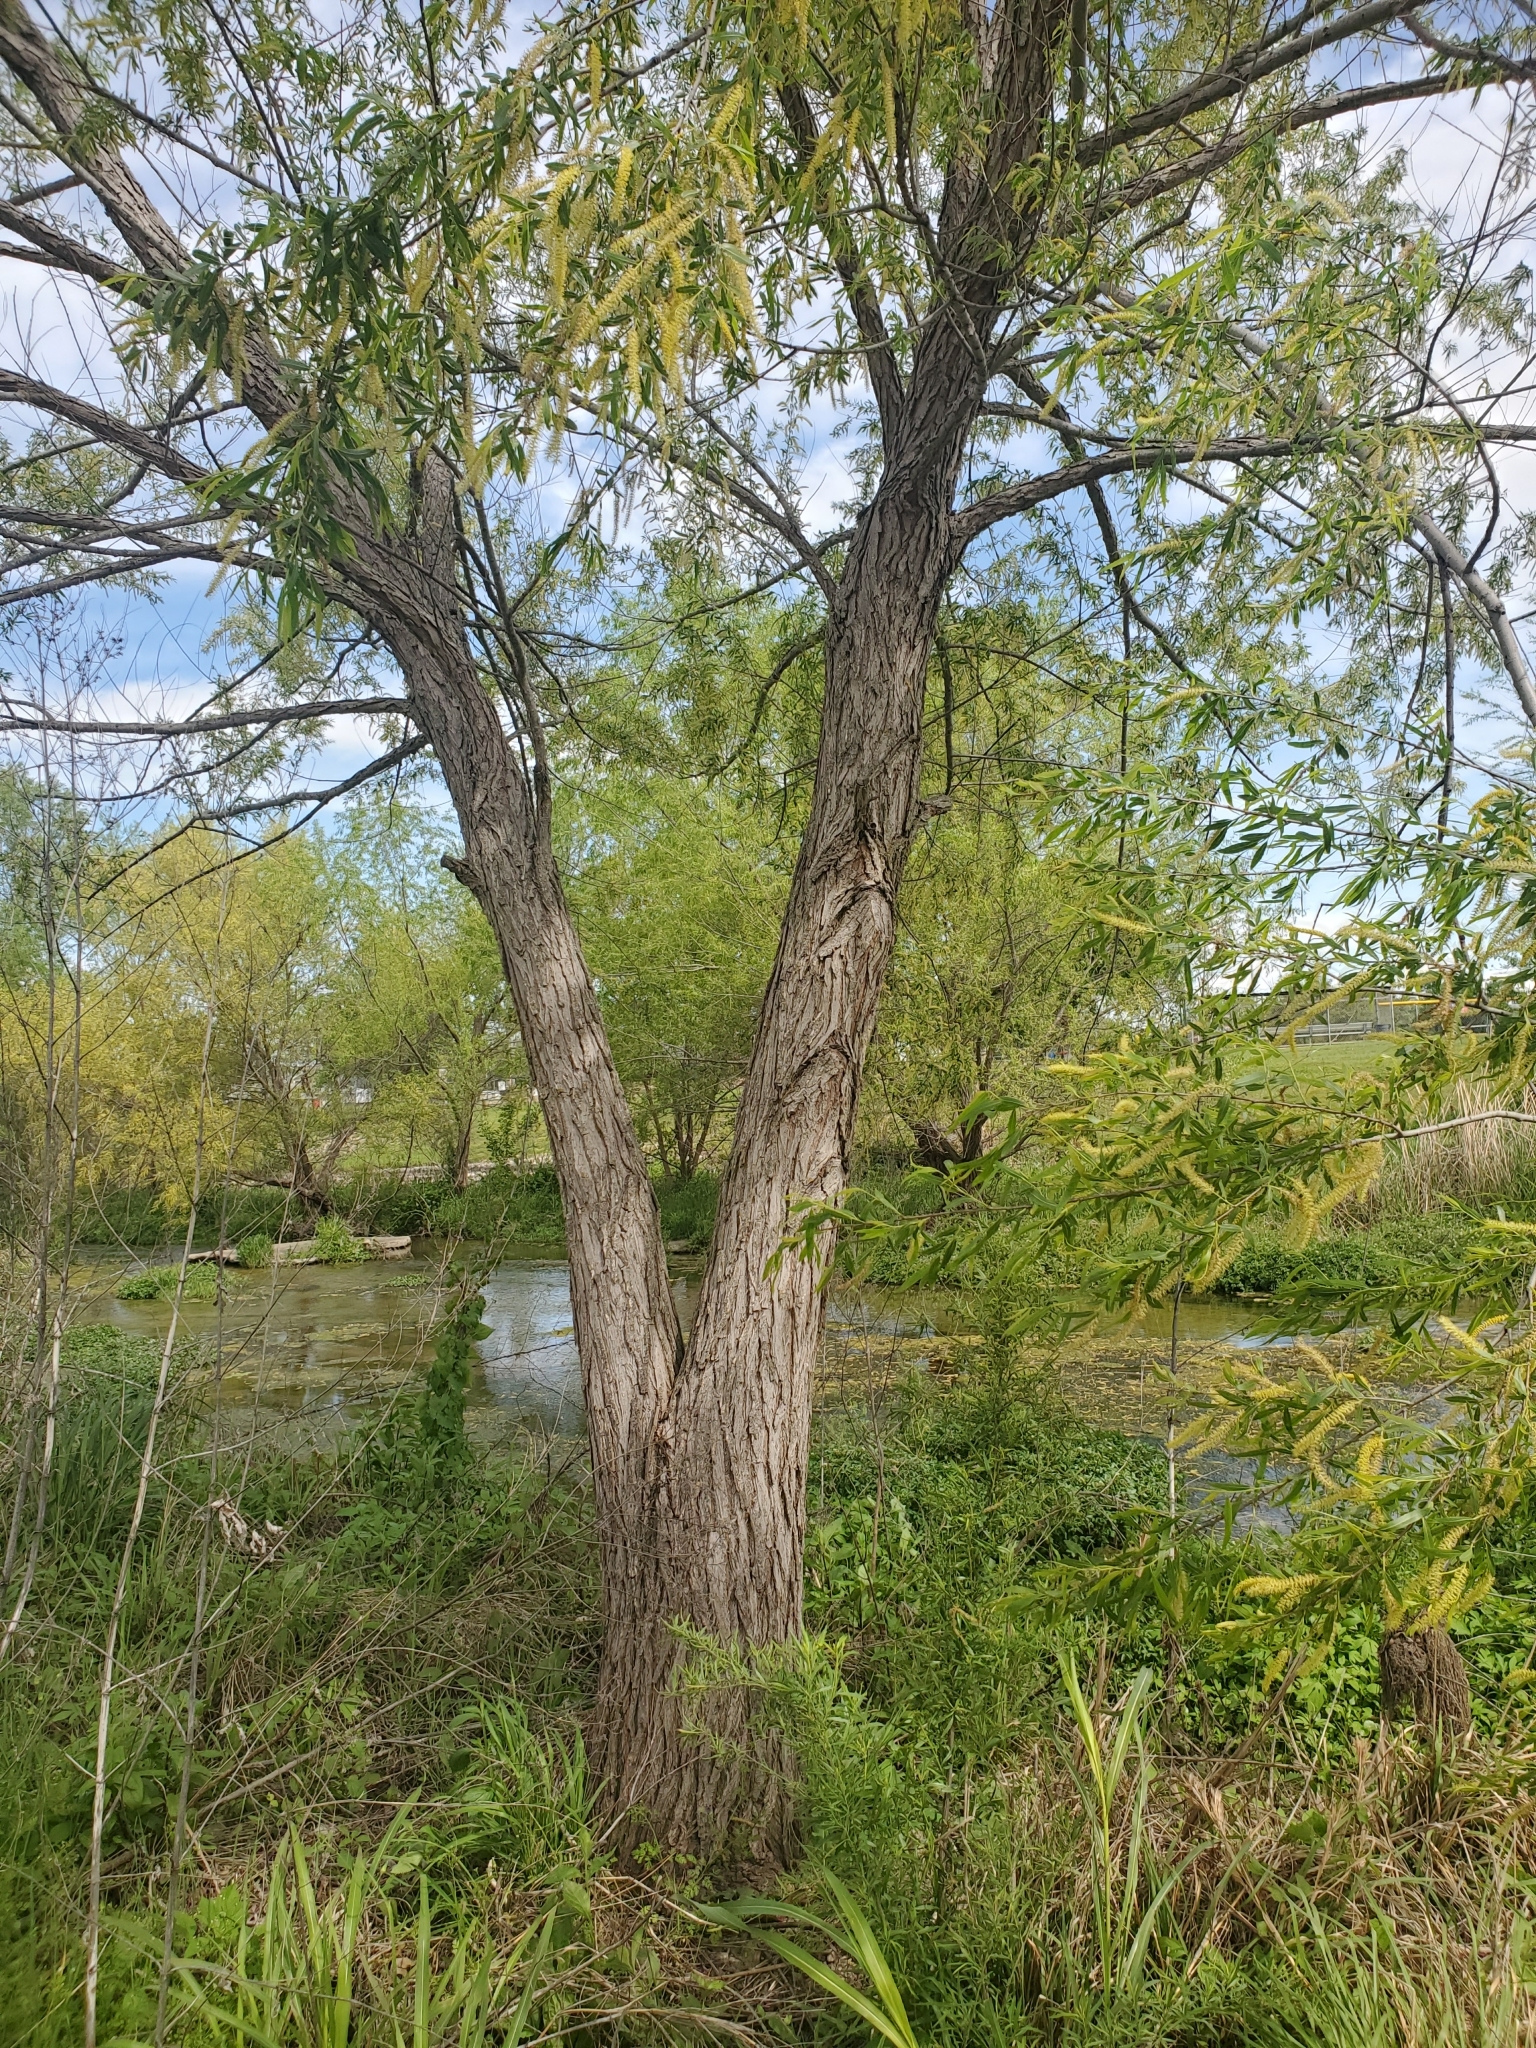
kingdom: Plantae
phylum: Tracheophyta
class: Magnoliopsida
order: Malpighiales
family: Salicaceae
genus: Salix
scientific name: Salix nigra
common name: Black willow
